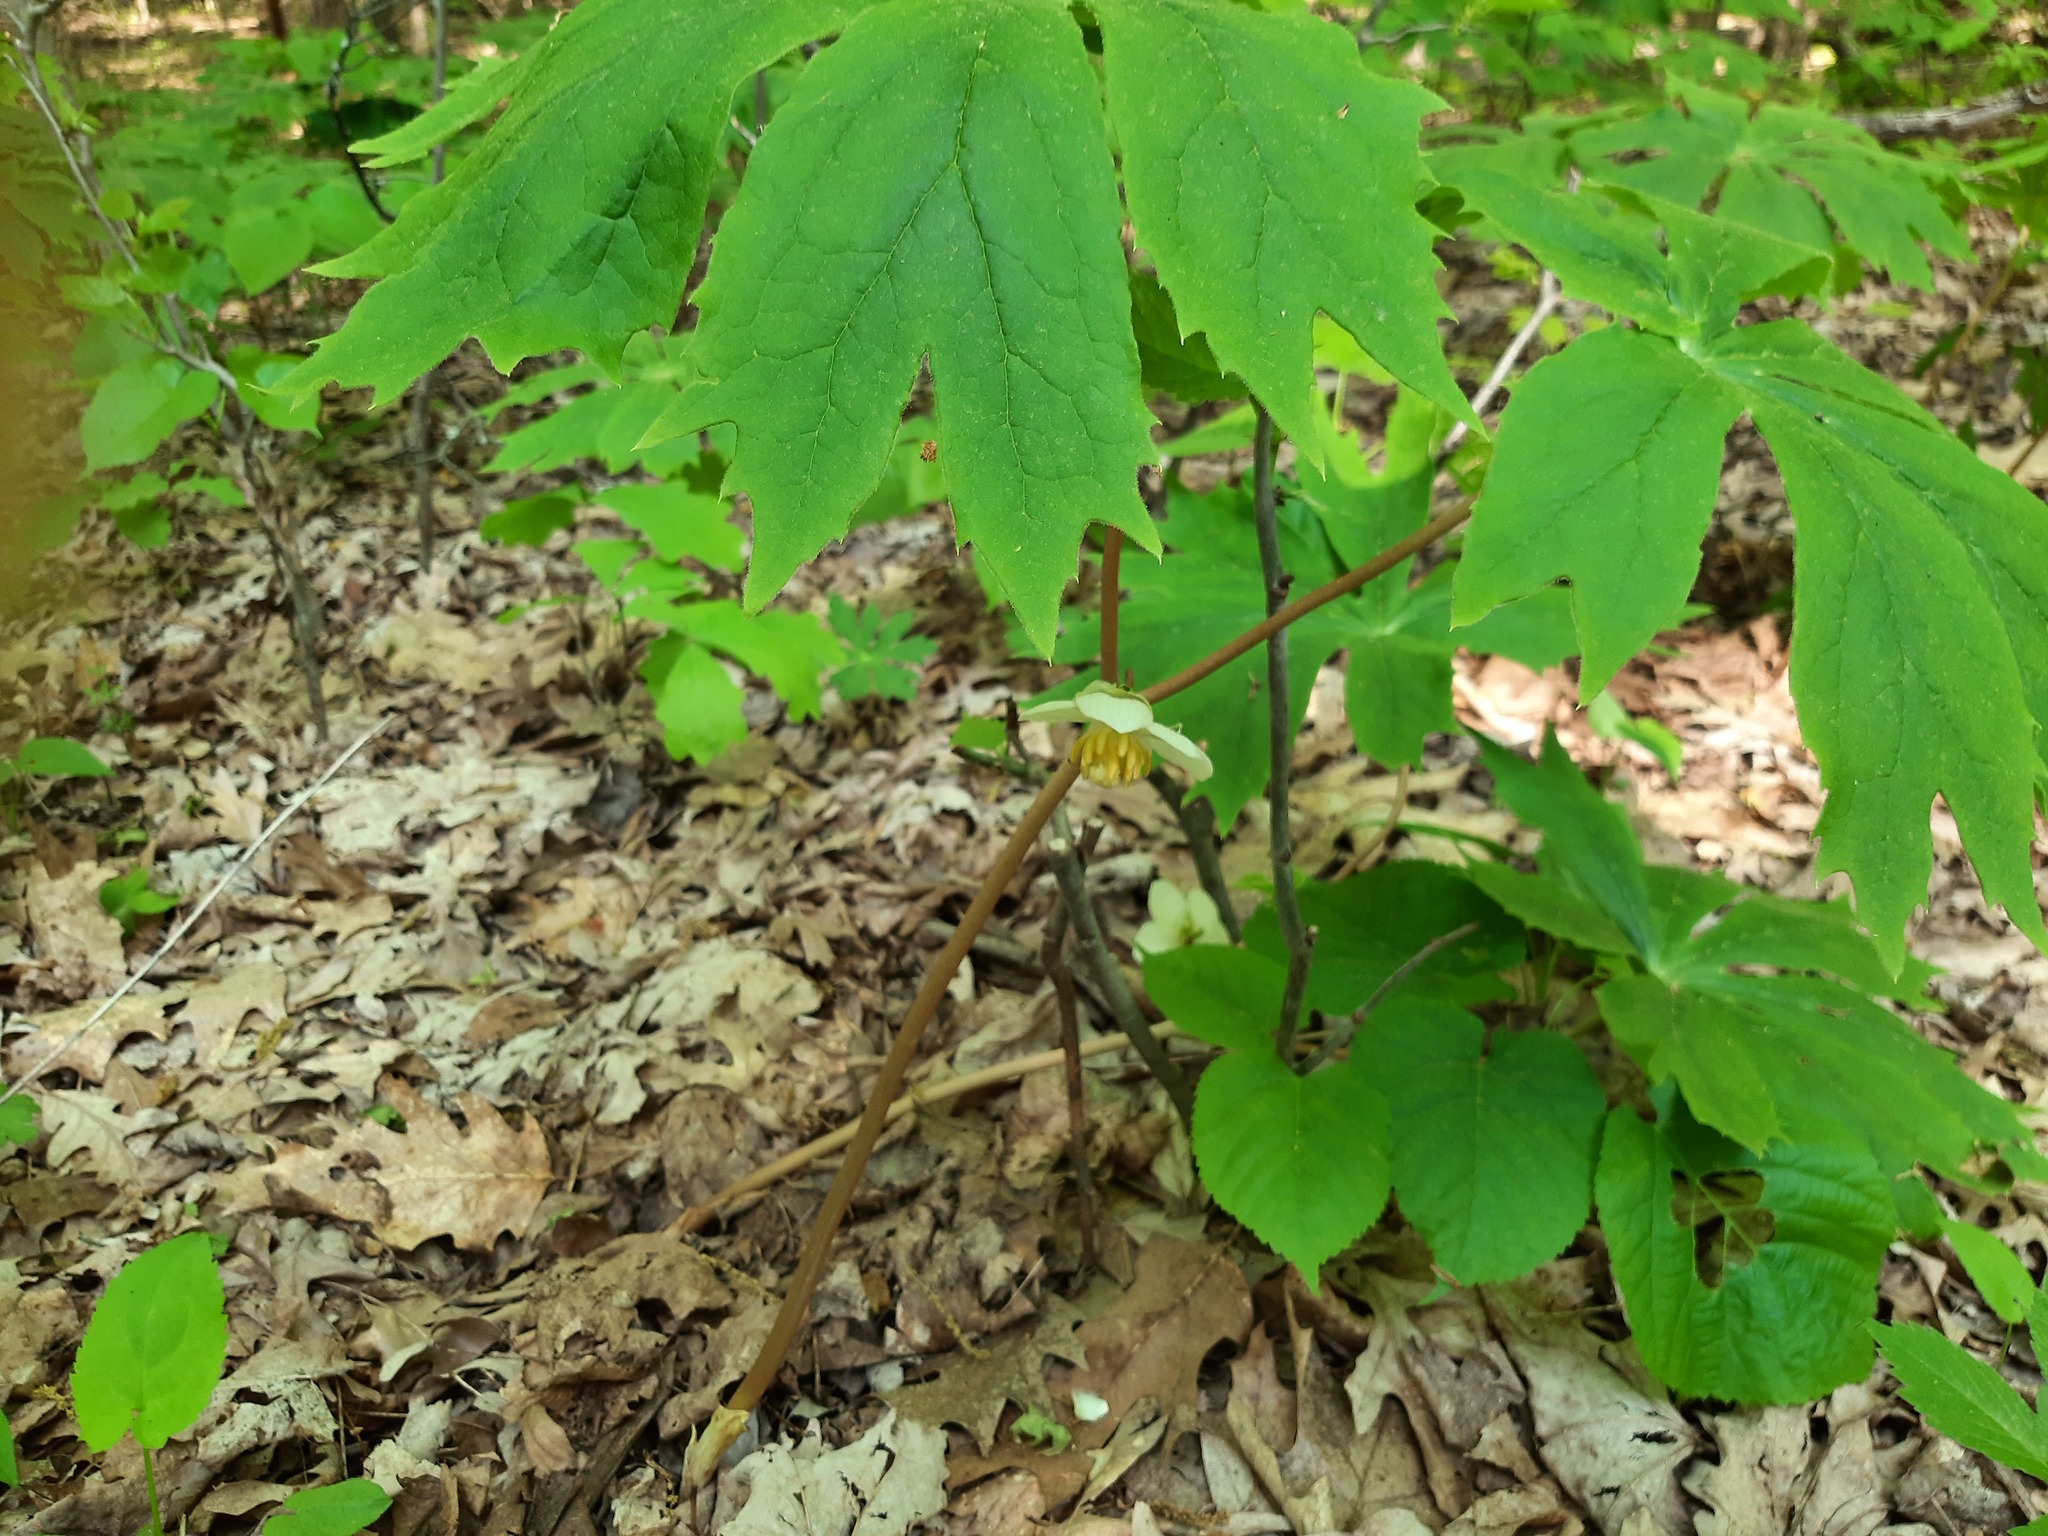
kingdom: Plantae
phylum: Tracheophyta
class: Magnoliopsida
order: Ranunculales
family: Berberidaceae
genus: Podophyllum
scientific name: Podophyllum peltatum
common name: Wild mandrake
